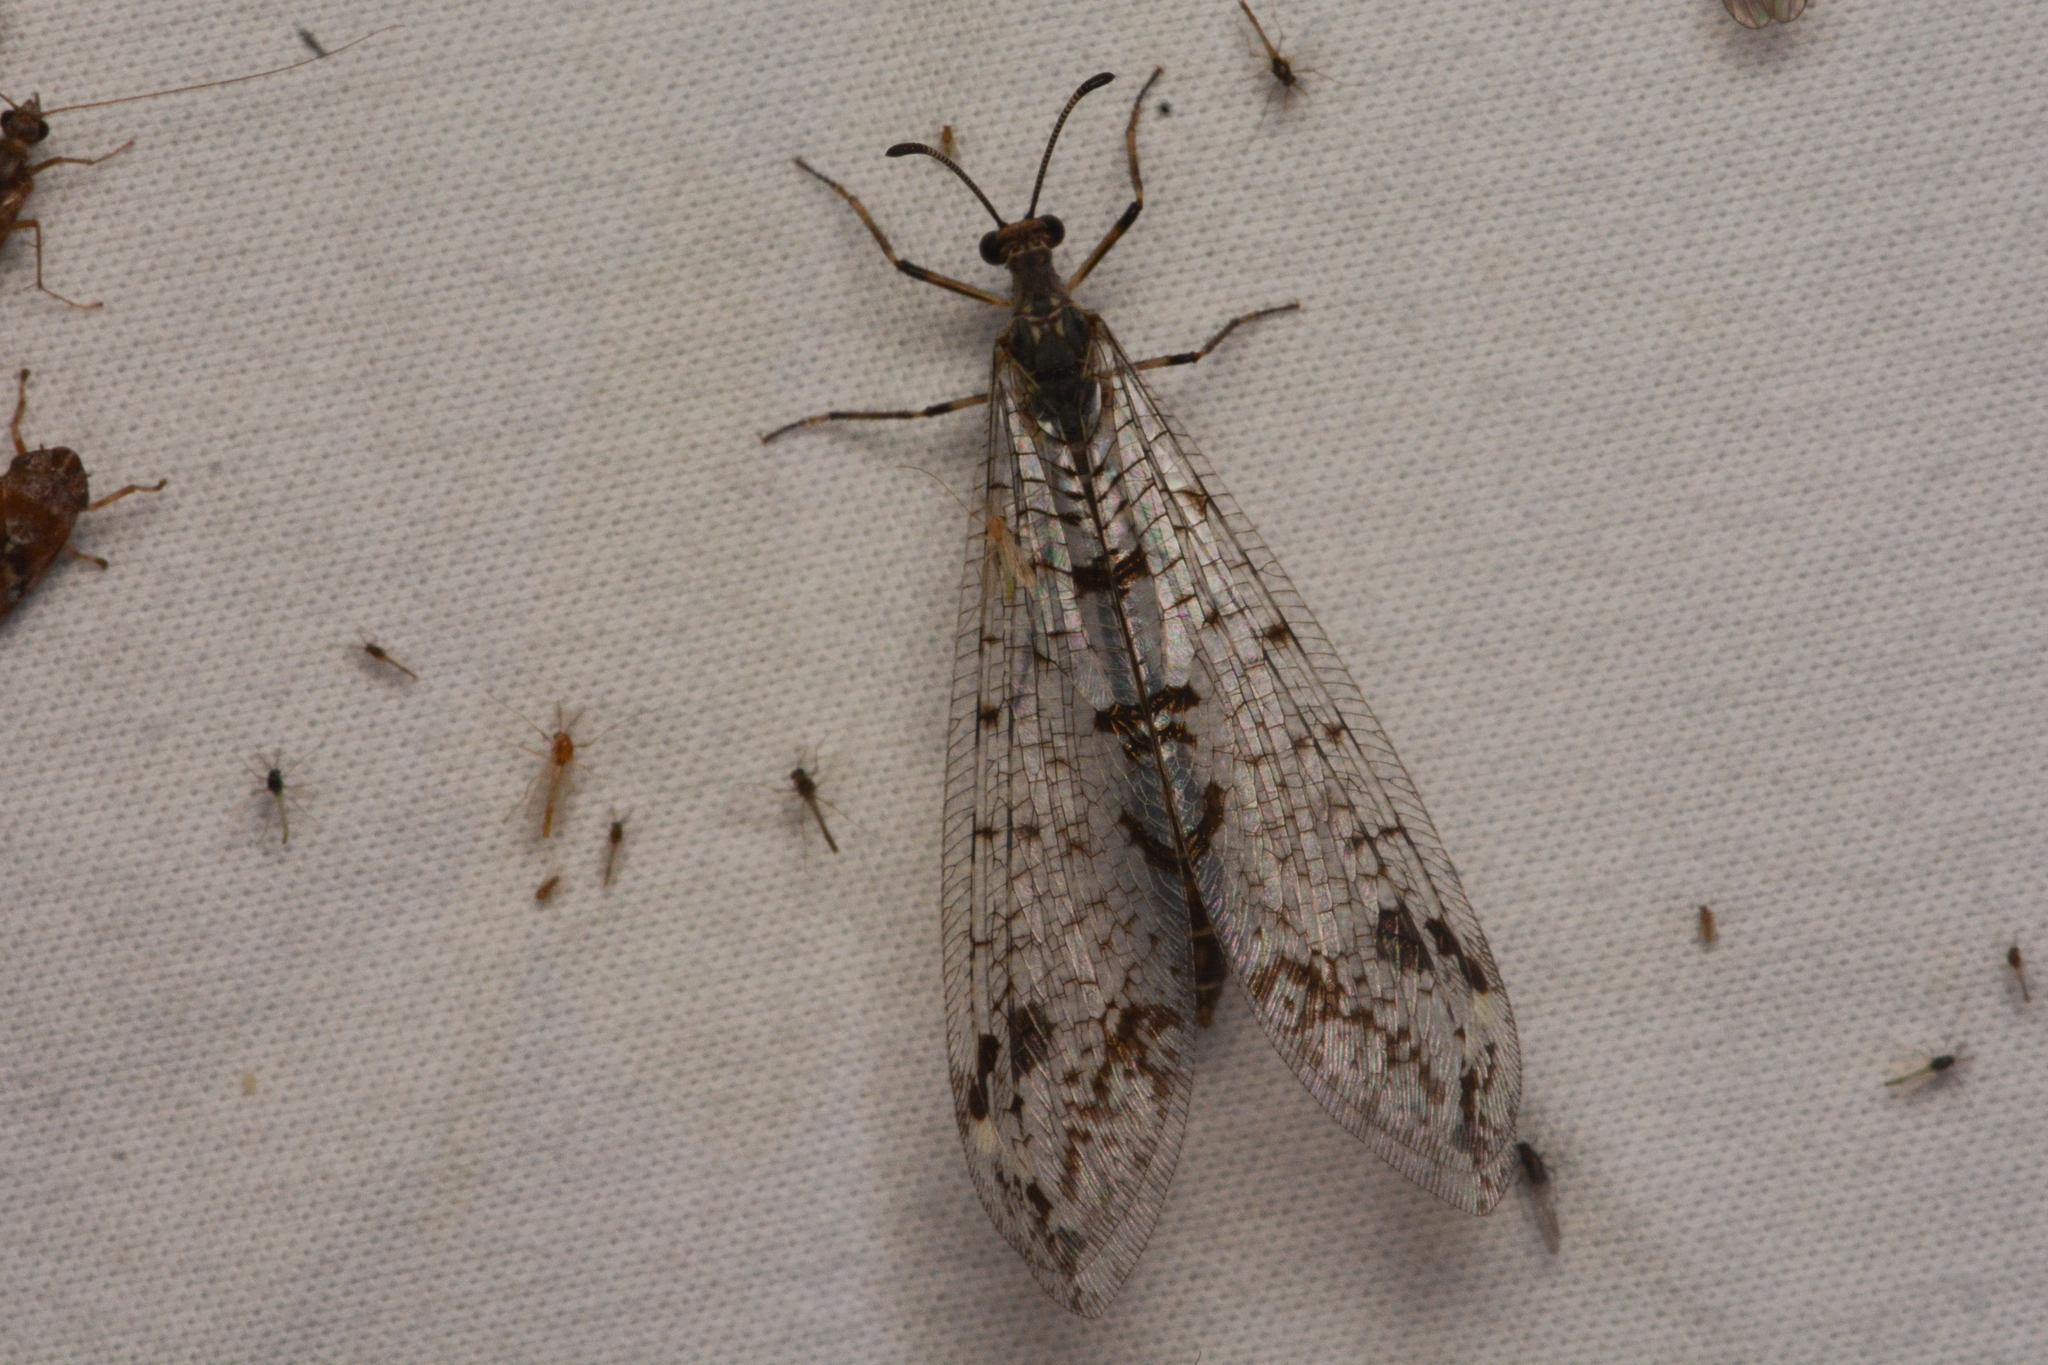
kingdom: Animalia
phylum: Arthropoda
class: Insecta
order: Neuroptera
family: Myrmeleontidae
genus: Dendroleon
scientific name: Dendroleon speciosus
